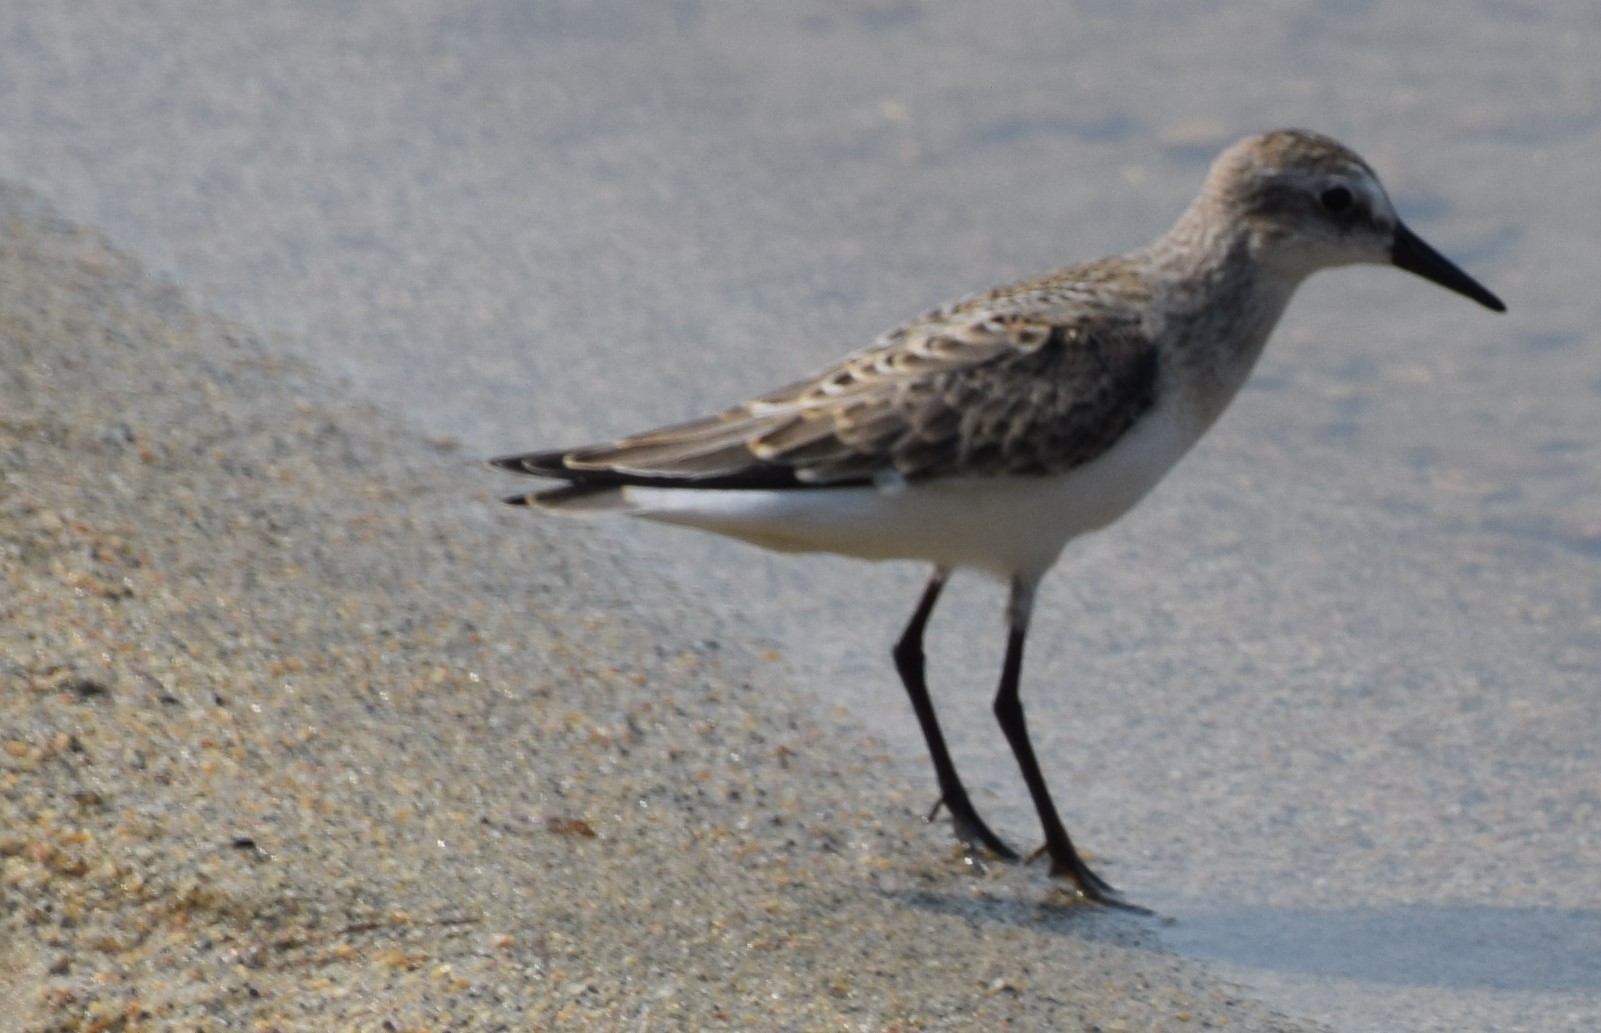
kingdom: Animalia
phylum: Chordata
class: Aves
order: Charadriiformes
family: Scolopacidae
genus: Calidris
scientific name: Calidris pusilla
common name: Semipalmated sandpiper
